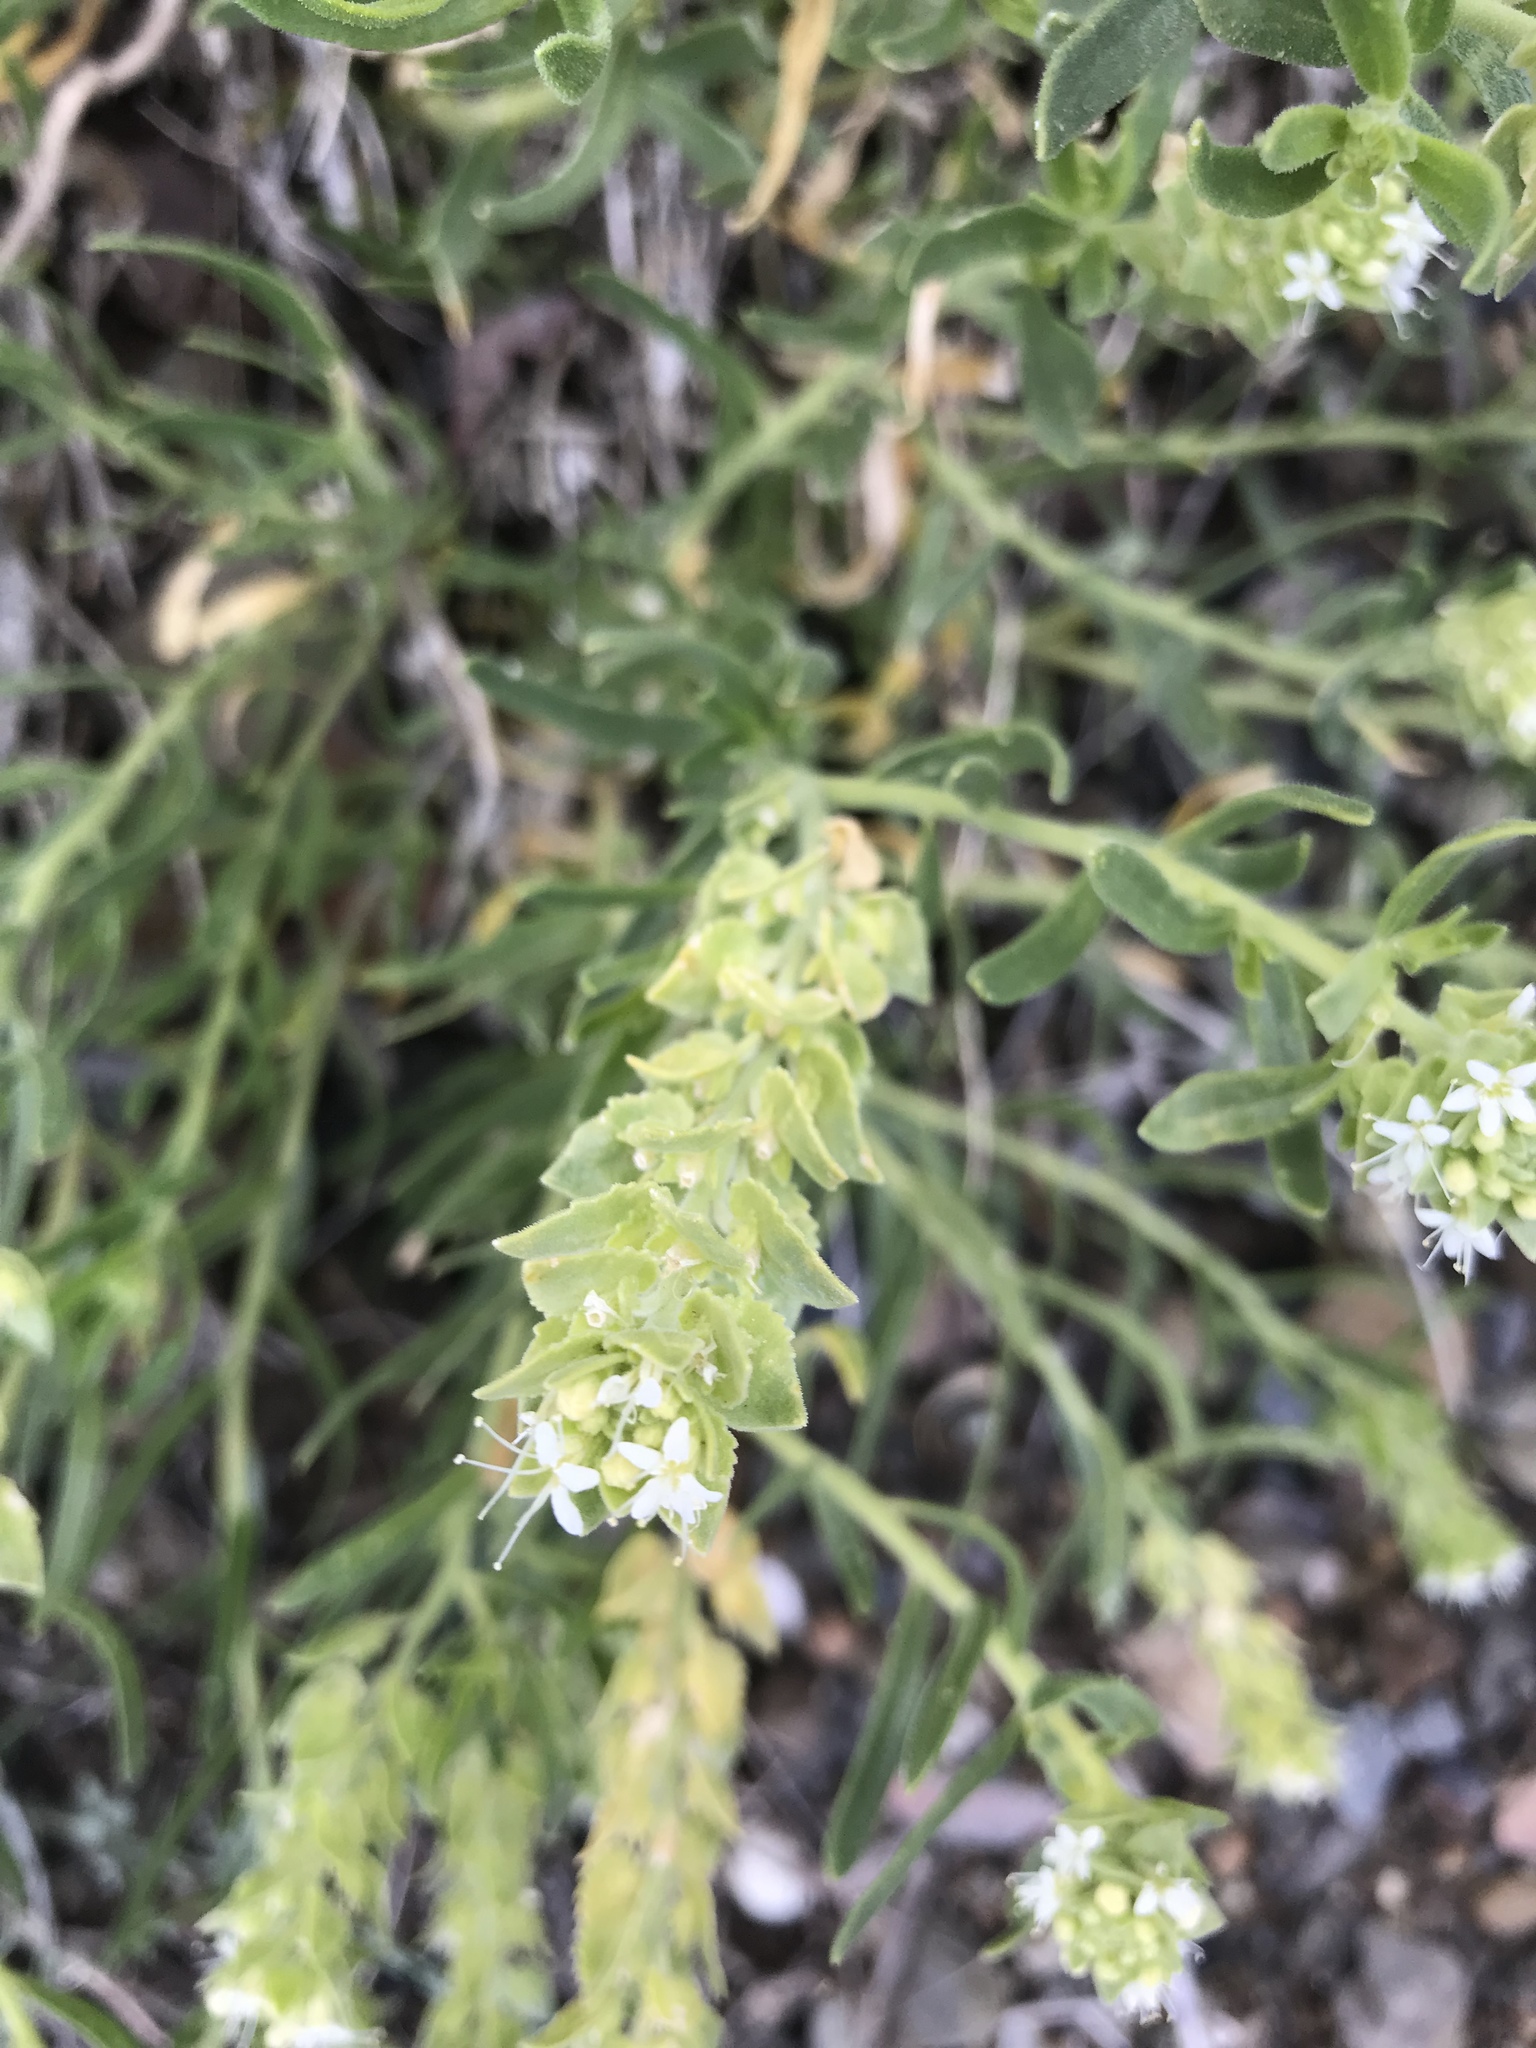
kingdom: Plantae
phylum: Tracheophyta
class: Magnoliopsida
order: Cornales
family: Loasaceae
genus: Petalonyx
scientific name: Petalonyx linearis
